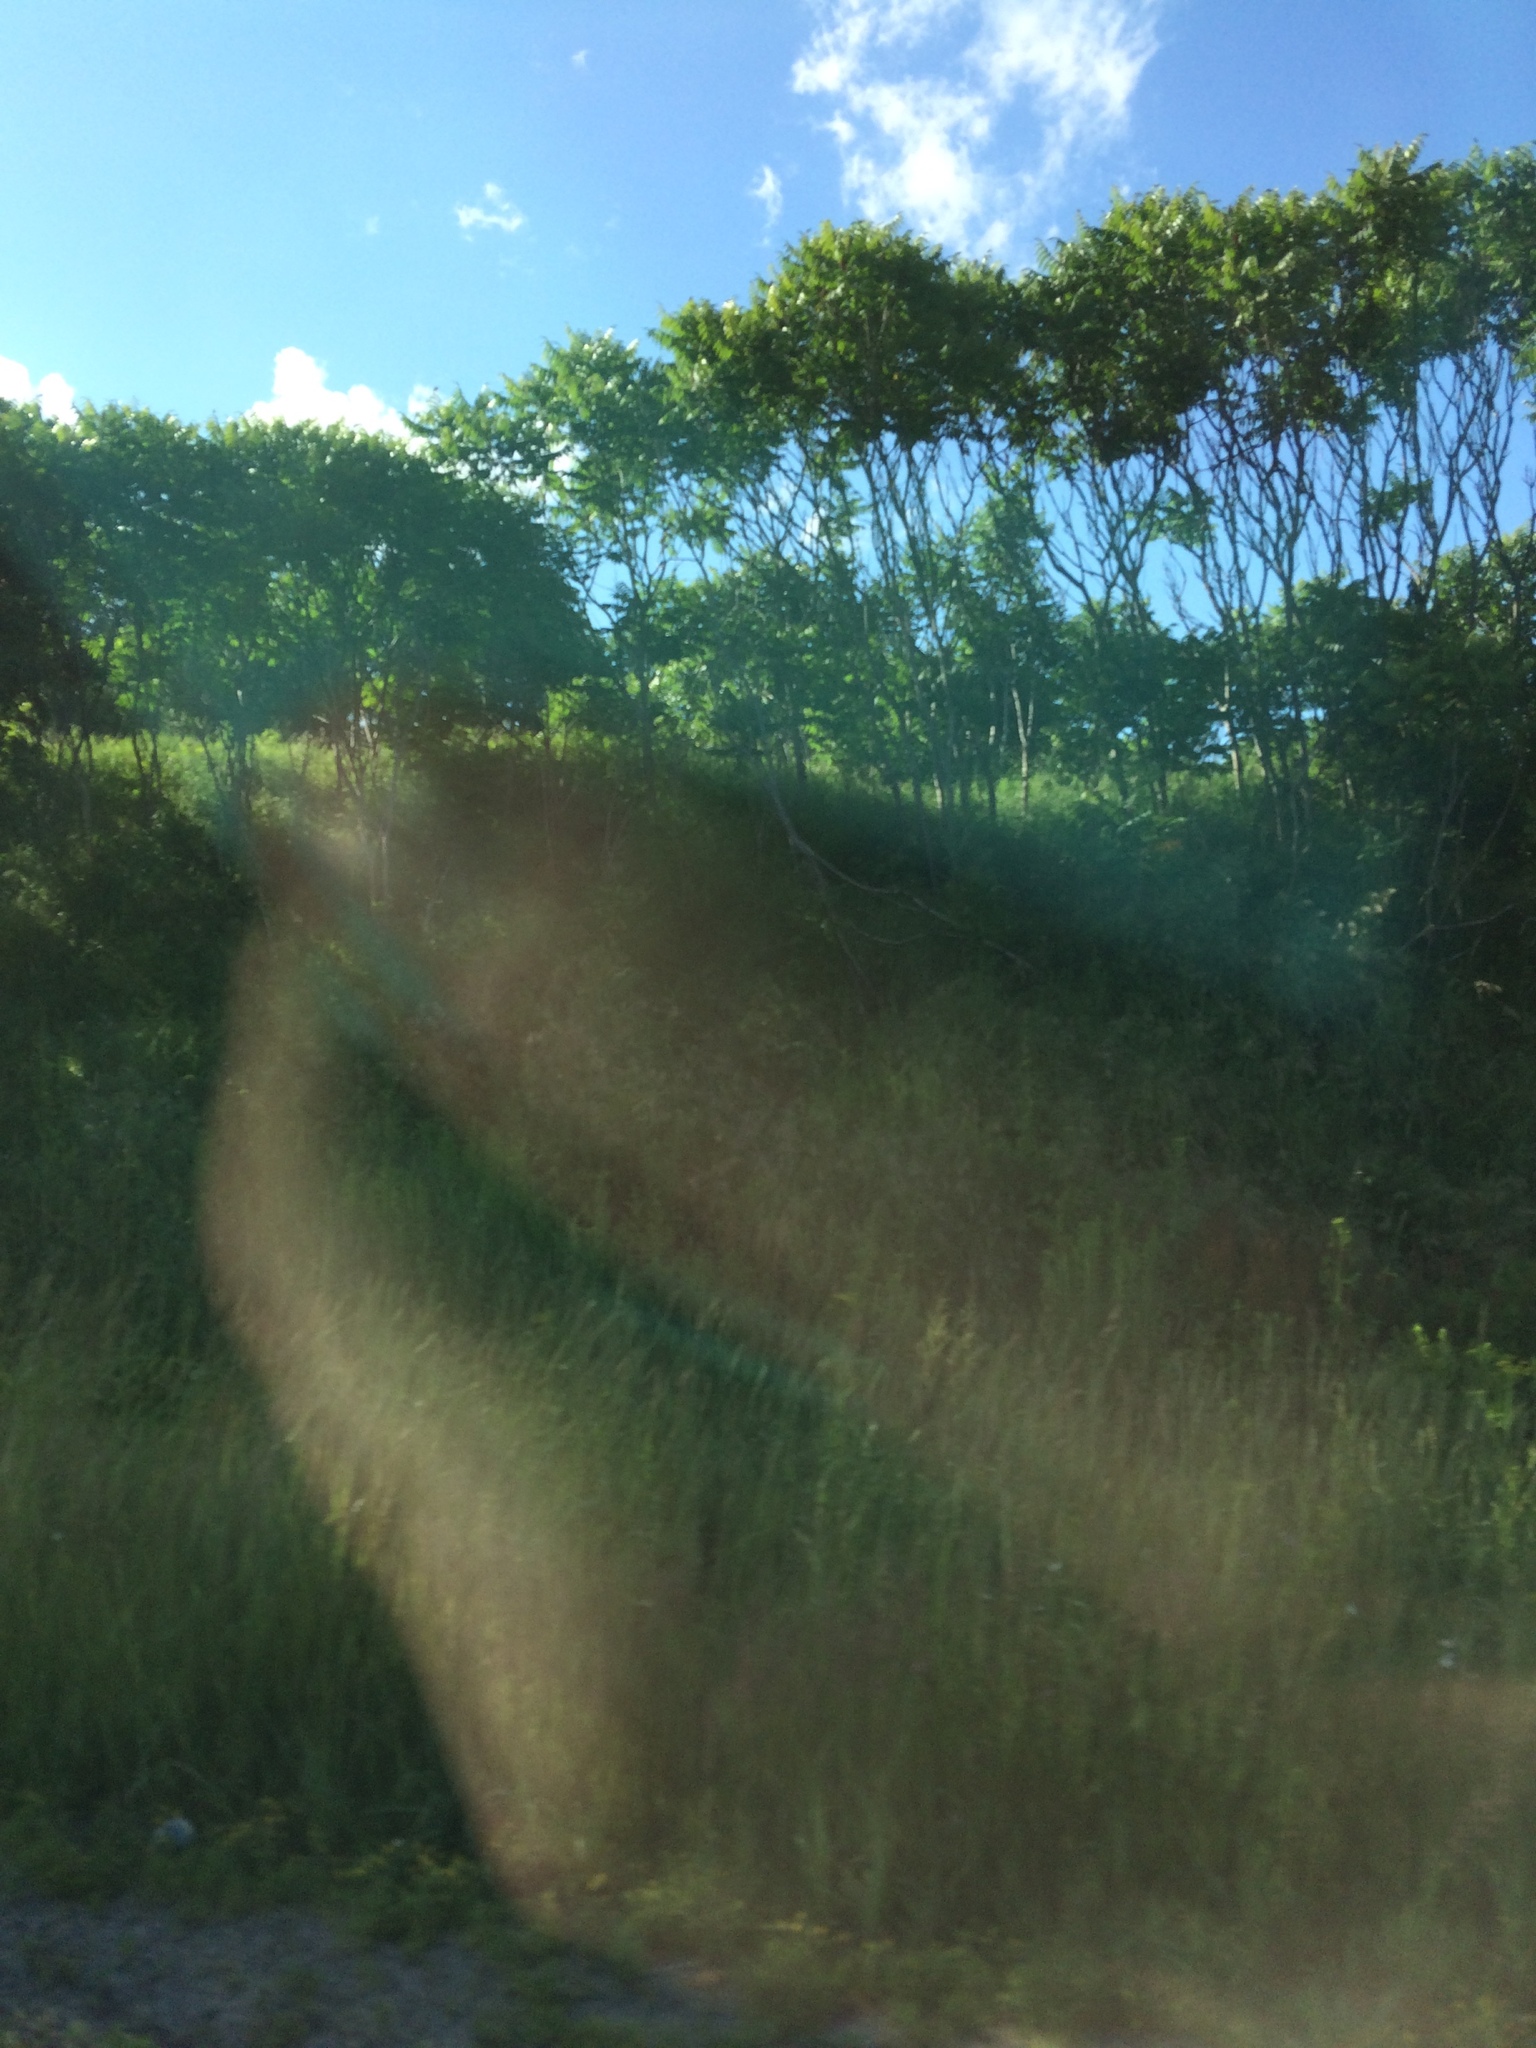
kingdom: Plantae
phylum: Tracheophyta
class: Magnoliopsida
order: Sapindales
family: Anacardiaceae
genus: Rhus
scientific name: Rhus typhina
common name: Staghorn sumac
